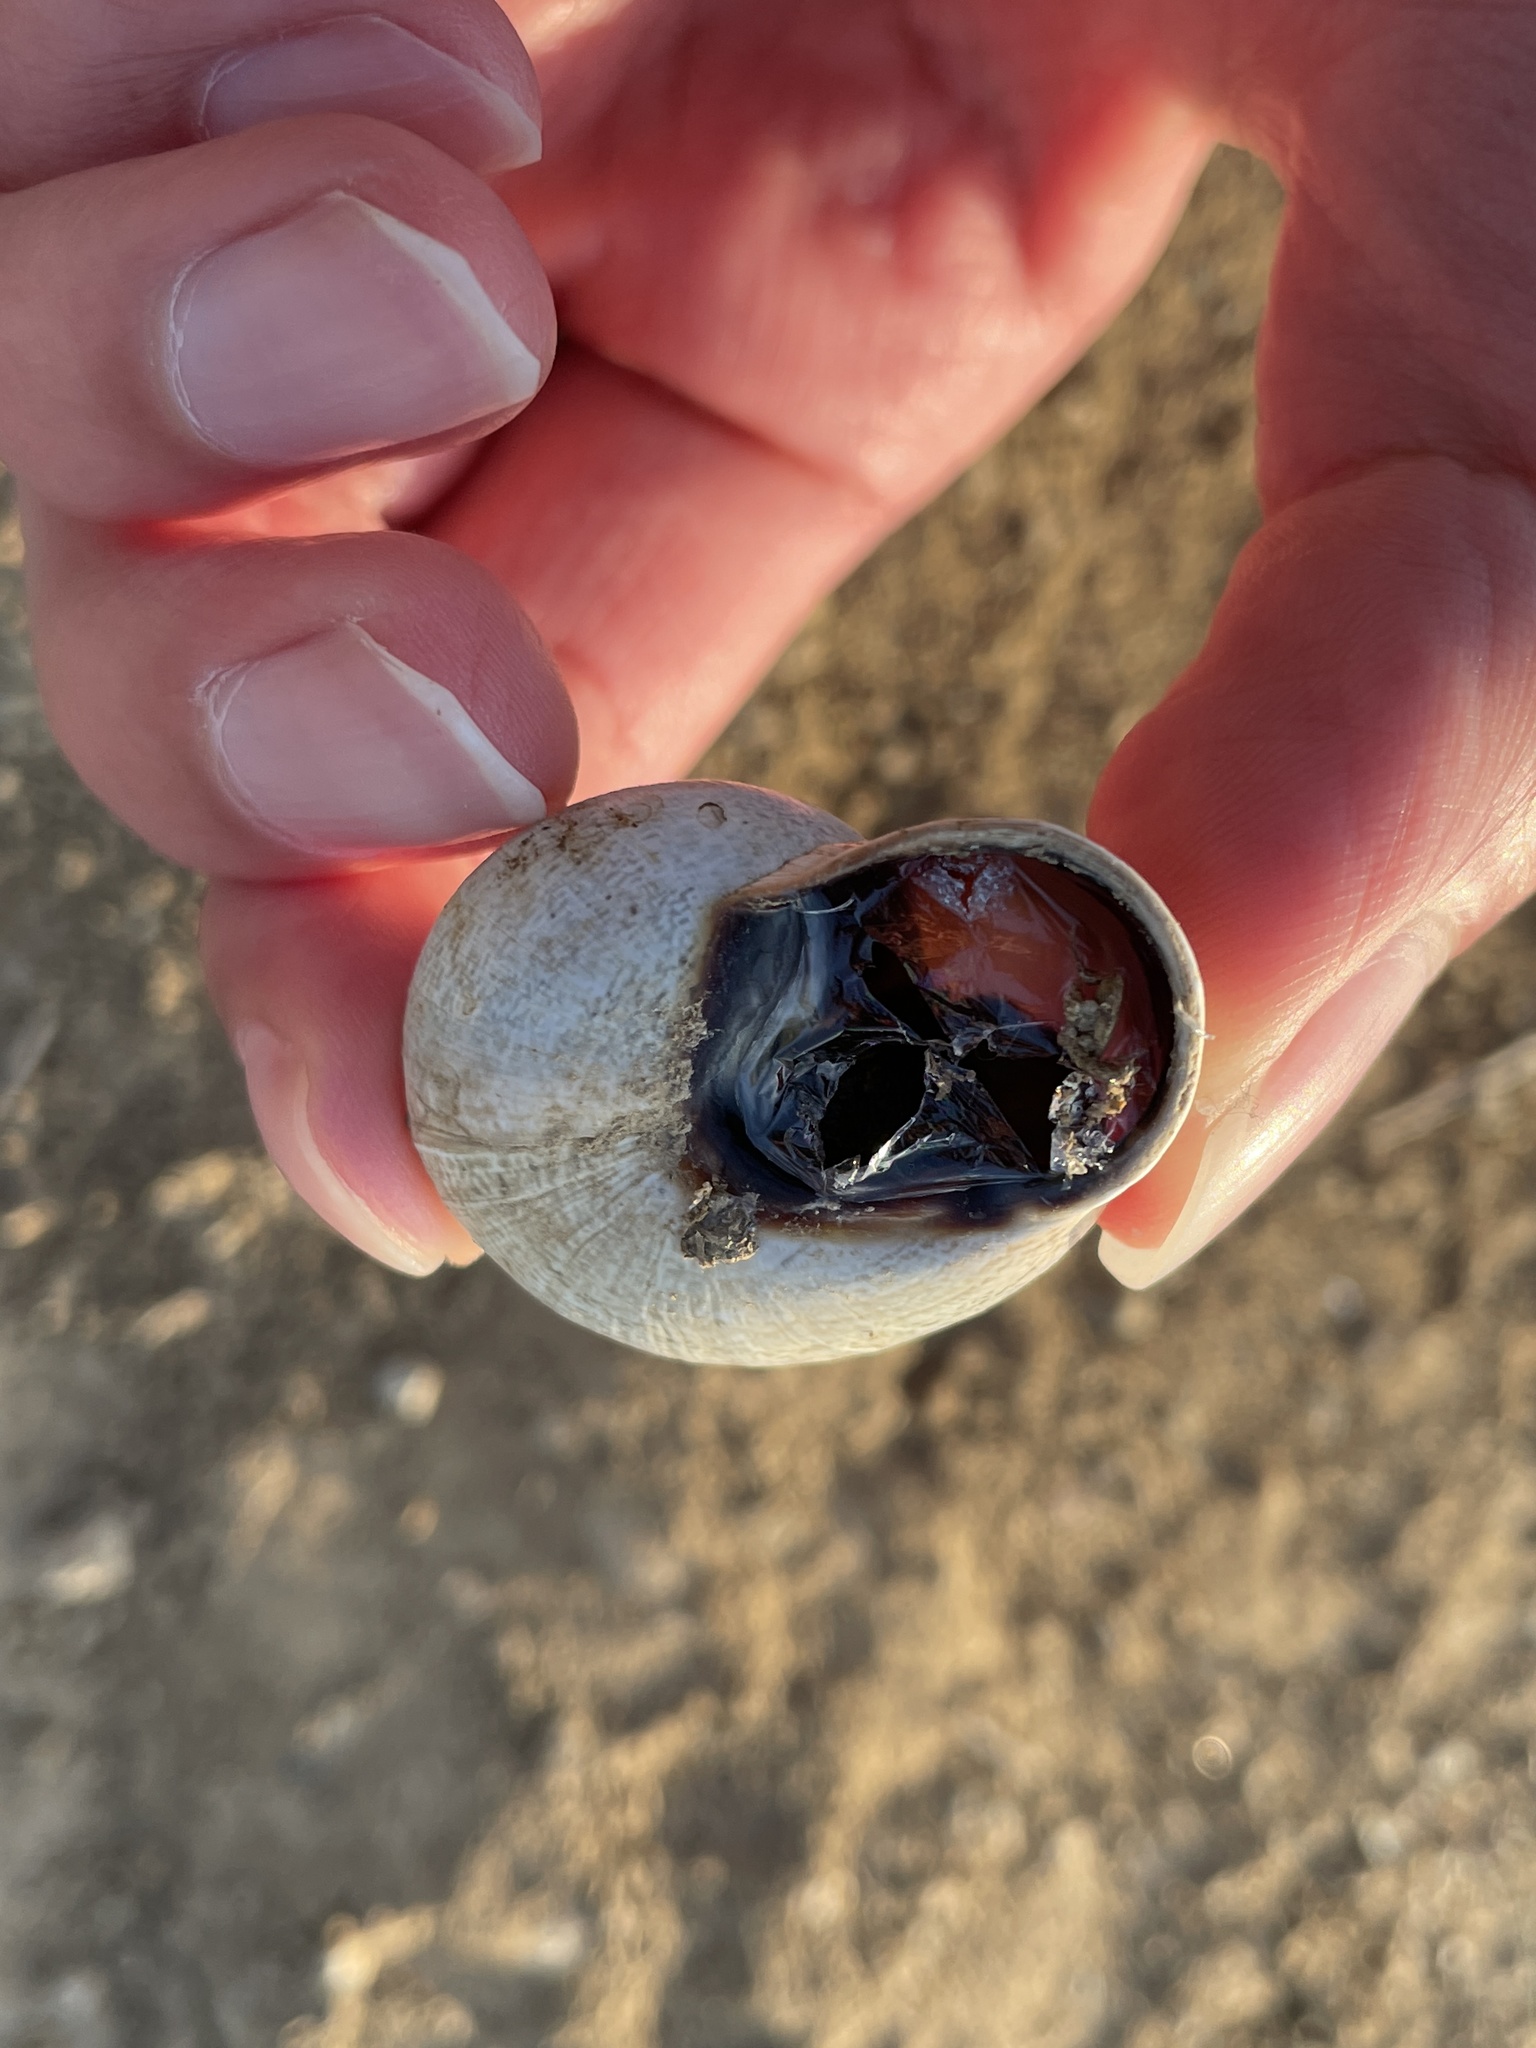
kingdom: Animalia
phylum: Mollusca
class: Gastropoda
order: Stylommatophora
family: Helicidae
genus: Otala
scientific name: Otala lactea
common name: Milk snail
